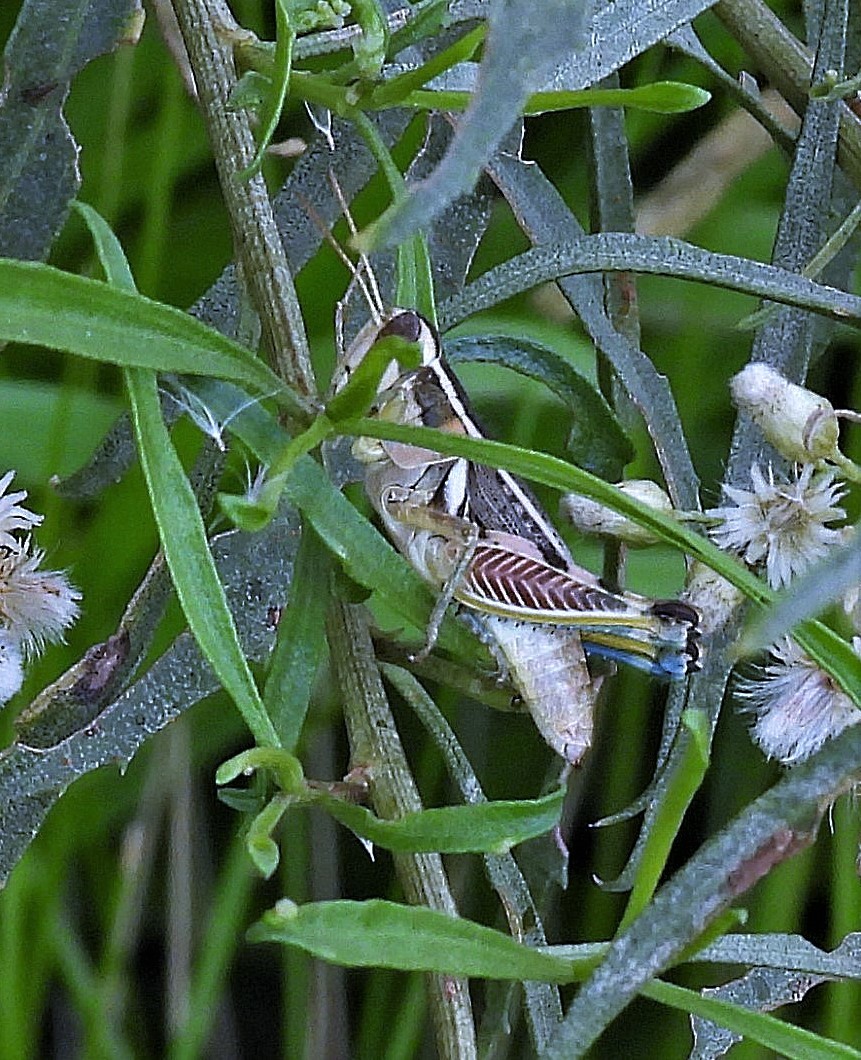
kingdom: Animalia
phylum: Arthropoda
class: Insecta
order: Orthoptera
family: Acrididae
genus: Dichroplus
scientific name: Dichroplus vittatus
